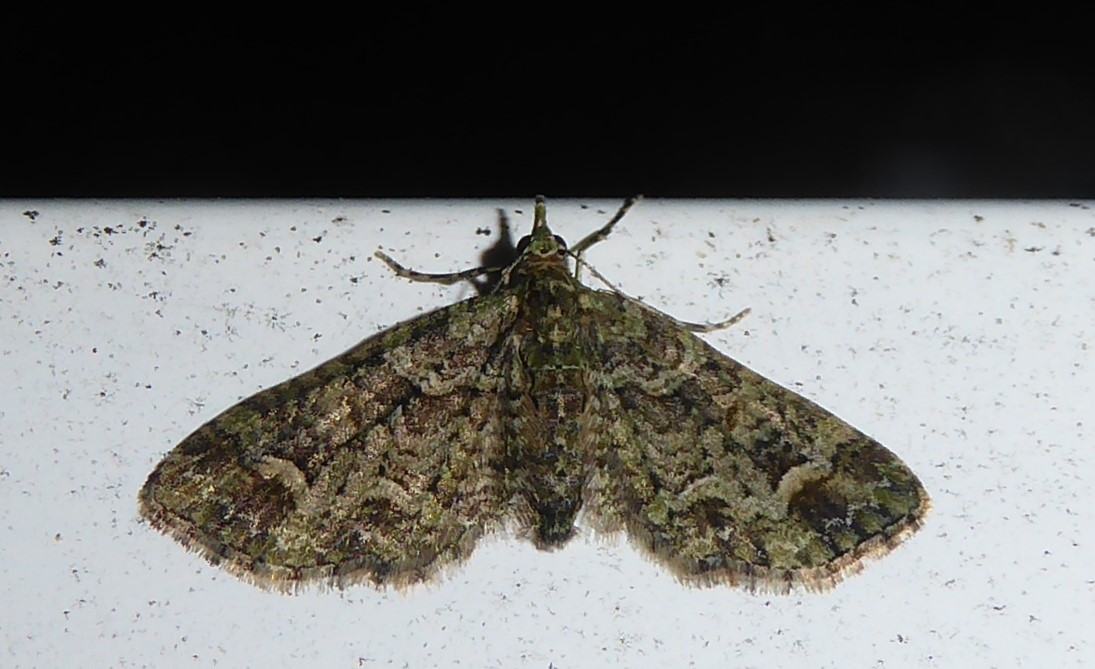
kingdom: Animalia
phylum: Arthropoda
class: Insecta
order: Lepidoptera
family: Geometridae
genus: Pasiphilodes
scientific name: Pasiphilodes testulata
